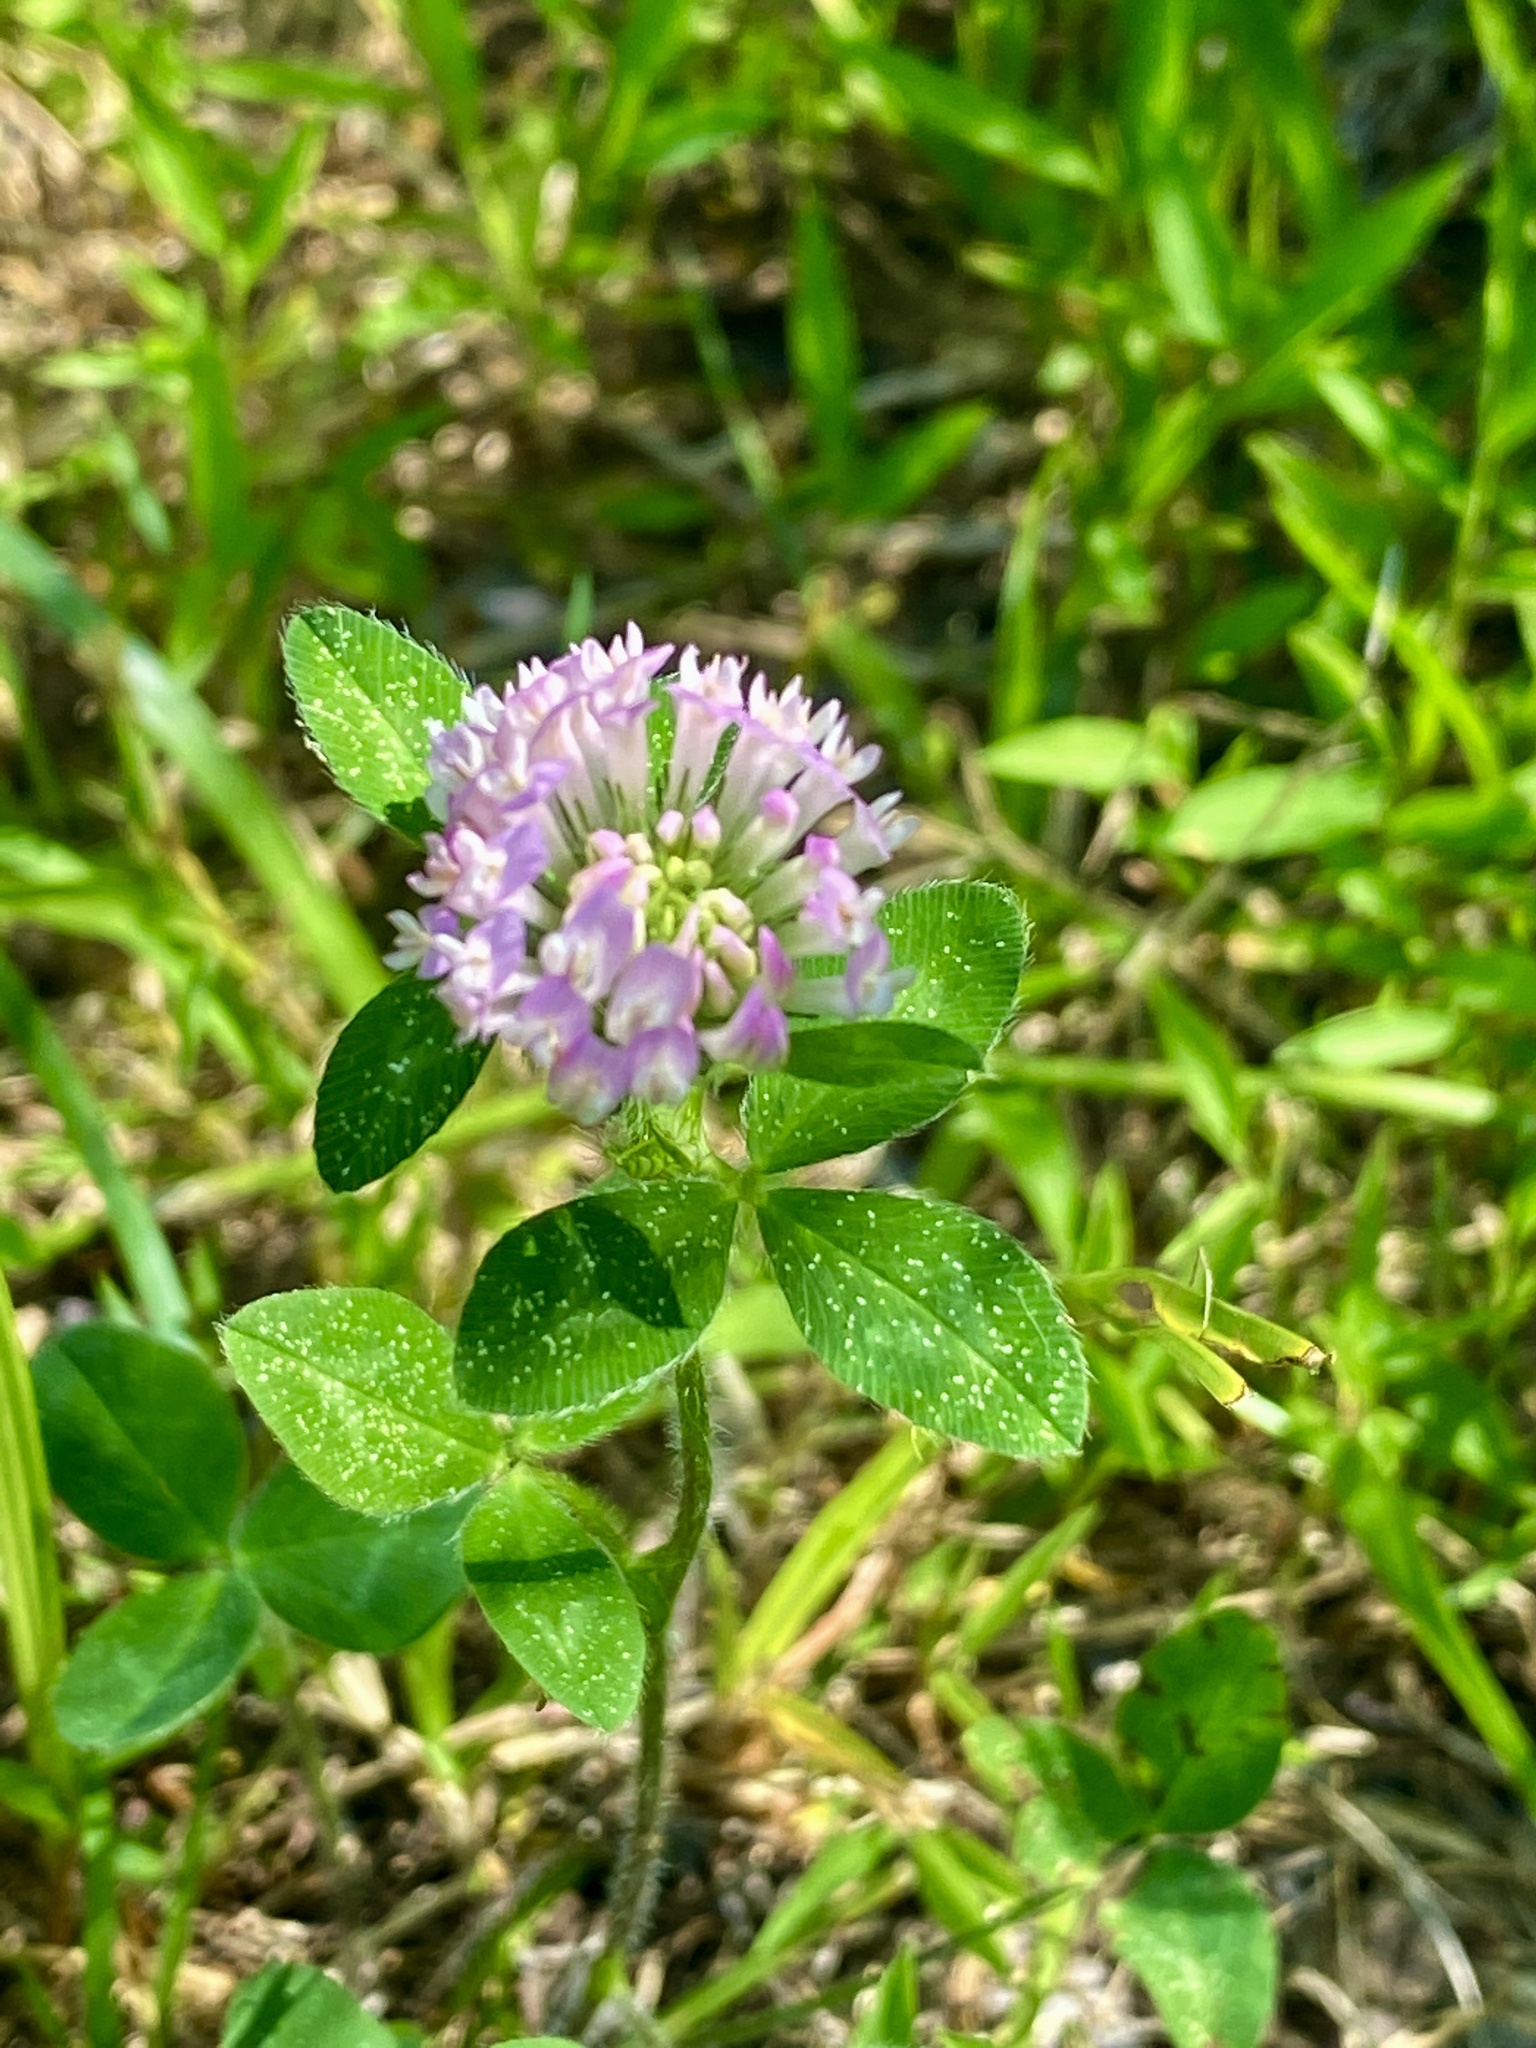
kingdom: Plantae
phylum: Tracheophyta
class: Magnoliopsida
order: Fabales
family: Fabaceae
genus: Trifolium
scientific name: Trifolium pratense
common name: Red clover
